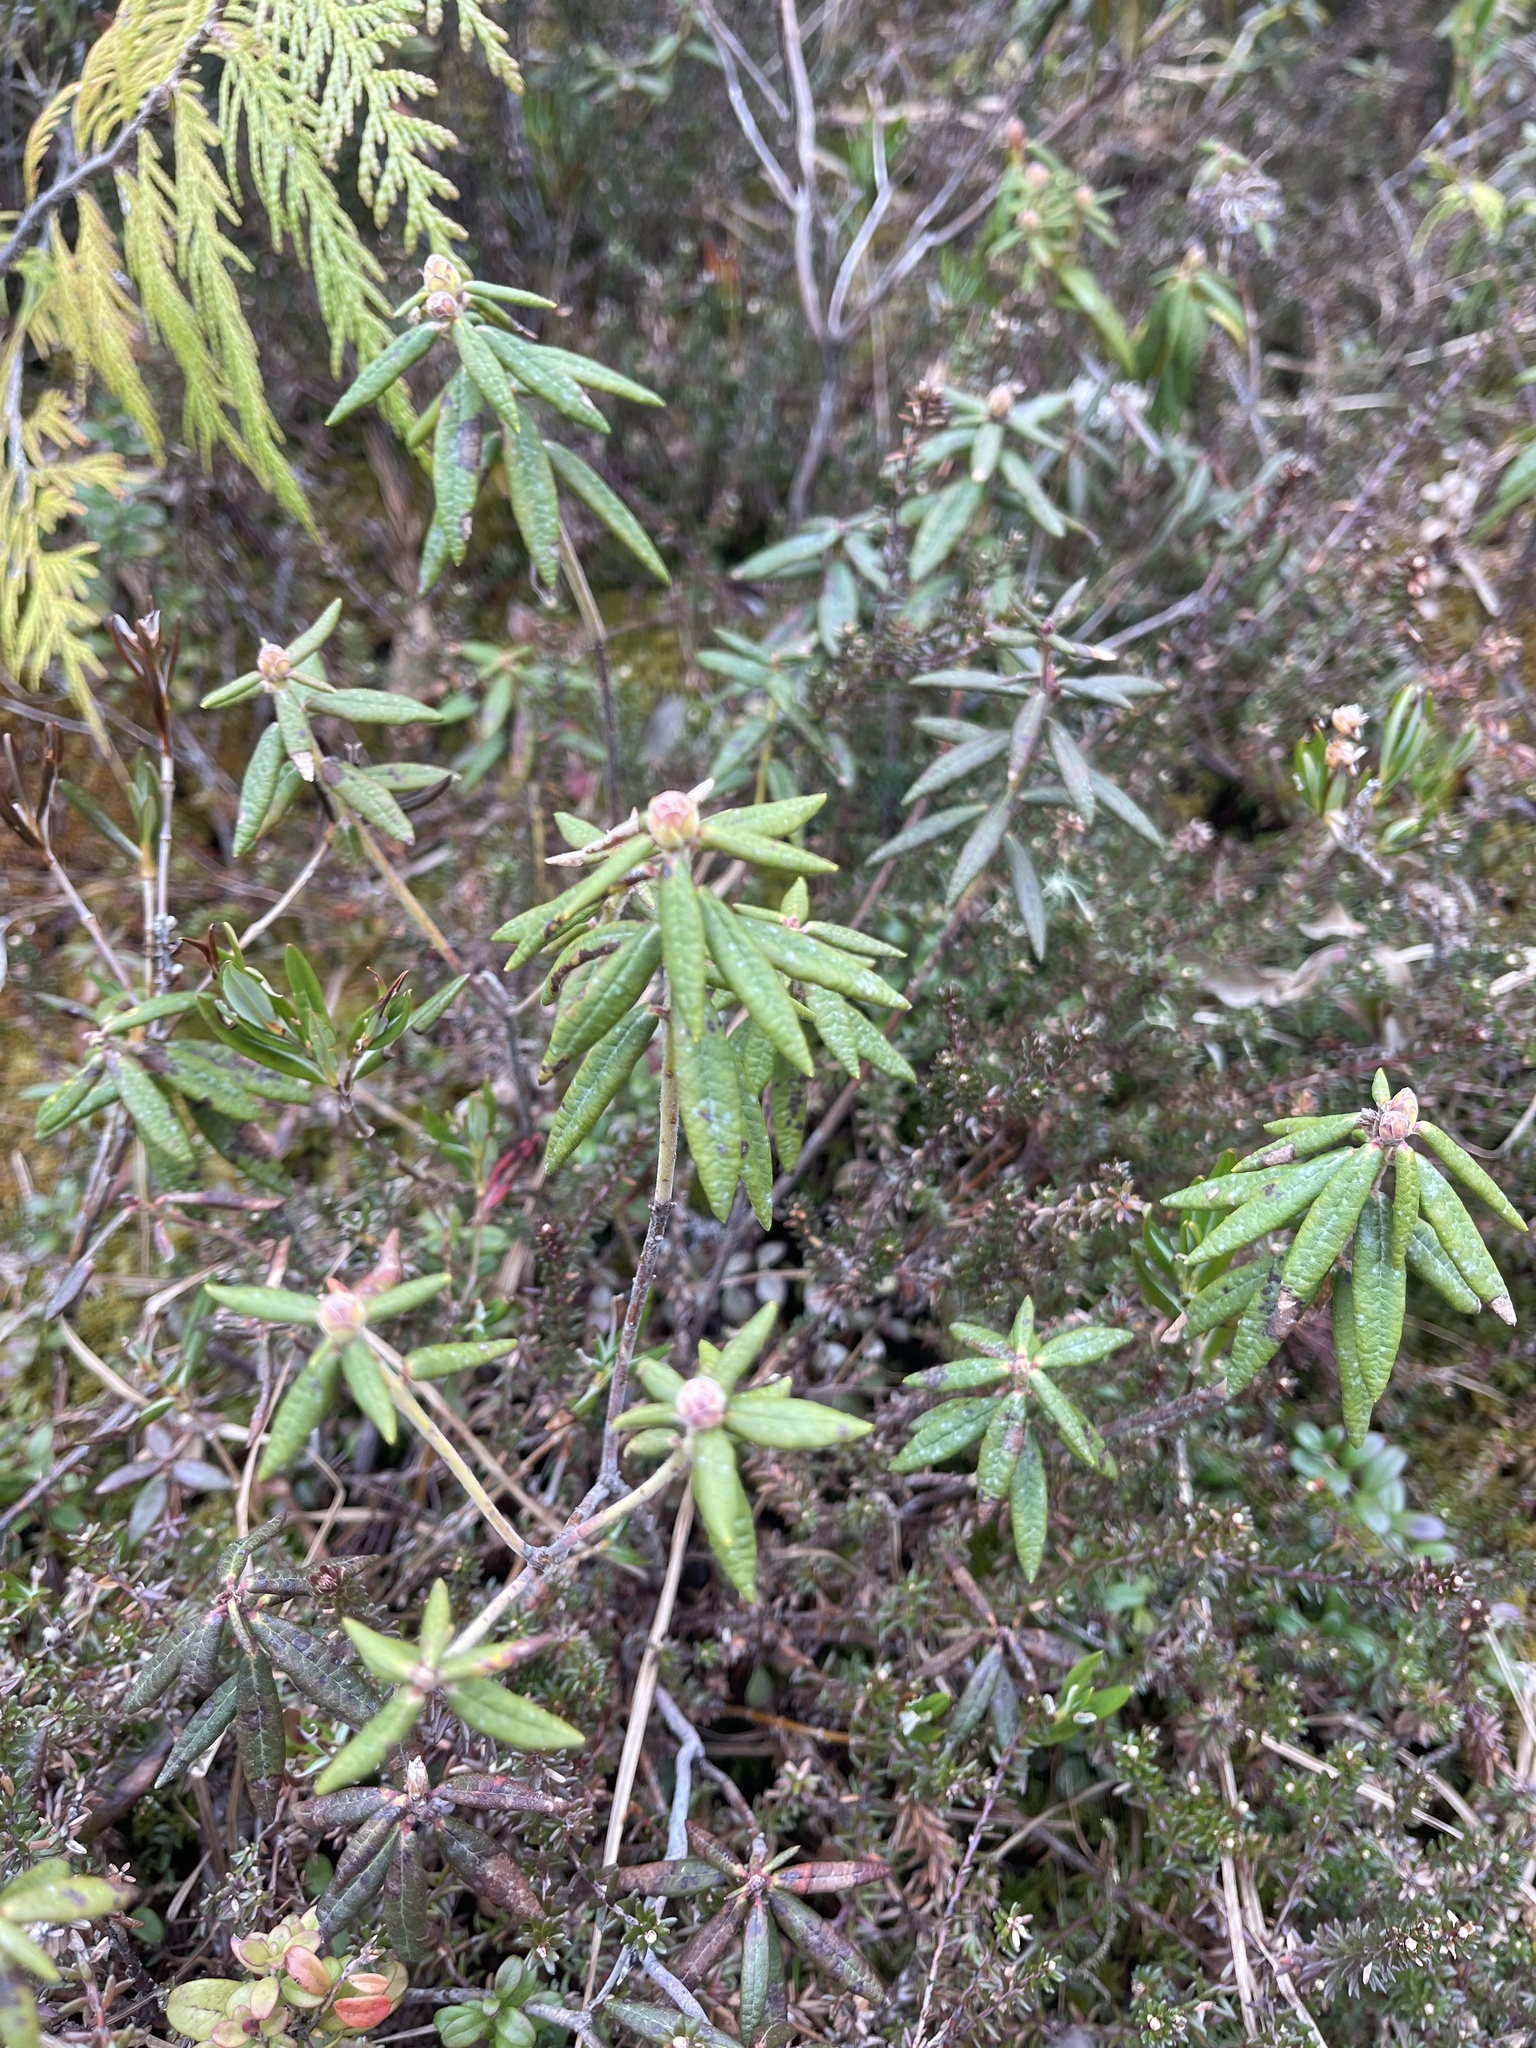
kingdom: Plantae
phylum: Tracheophyta
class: Magnoliopsida
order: Ericales
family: Ericaceae
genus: Rhododendron
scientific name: Rhododendron groenlandicum
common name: Bog labrador tea
